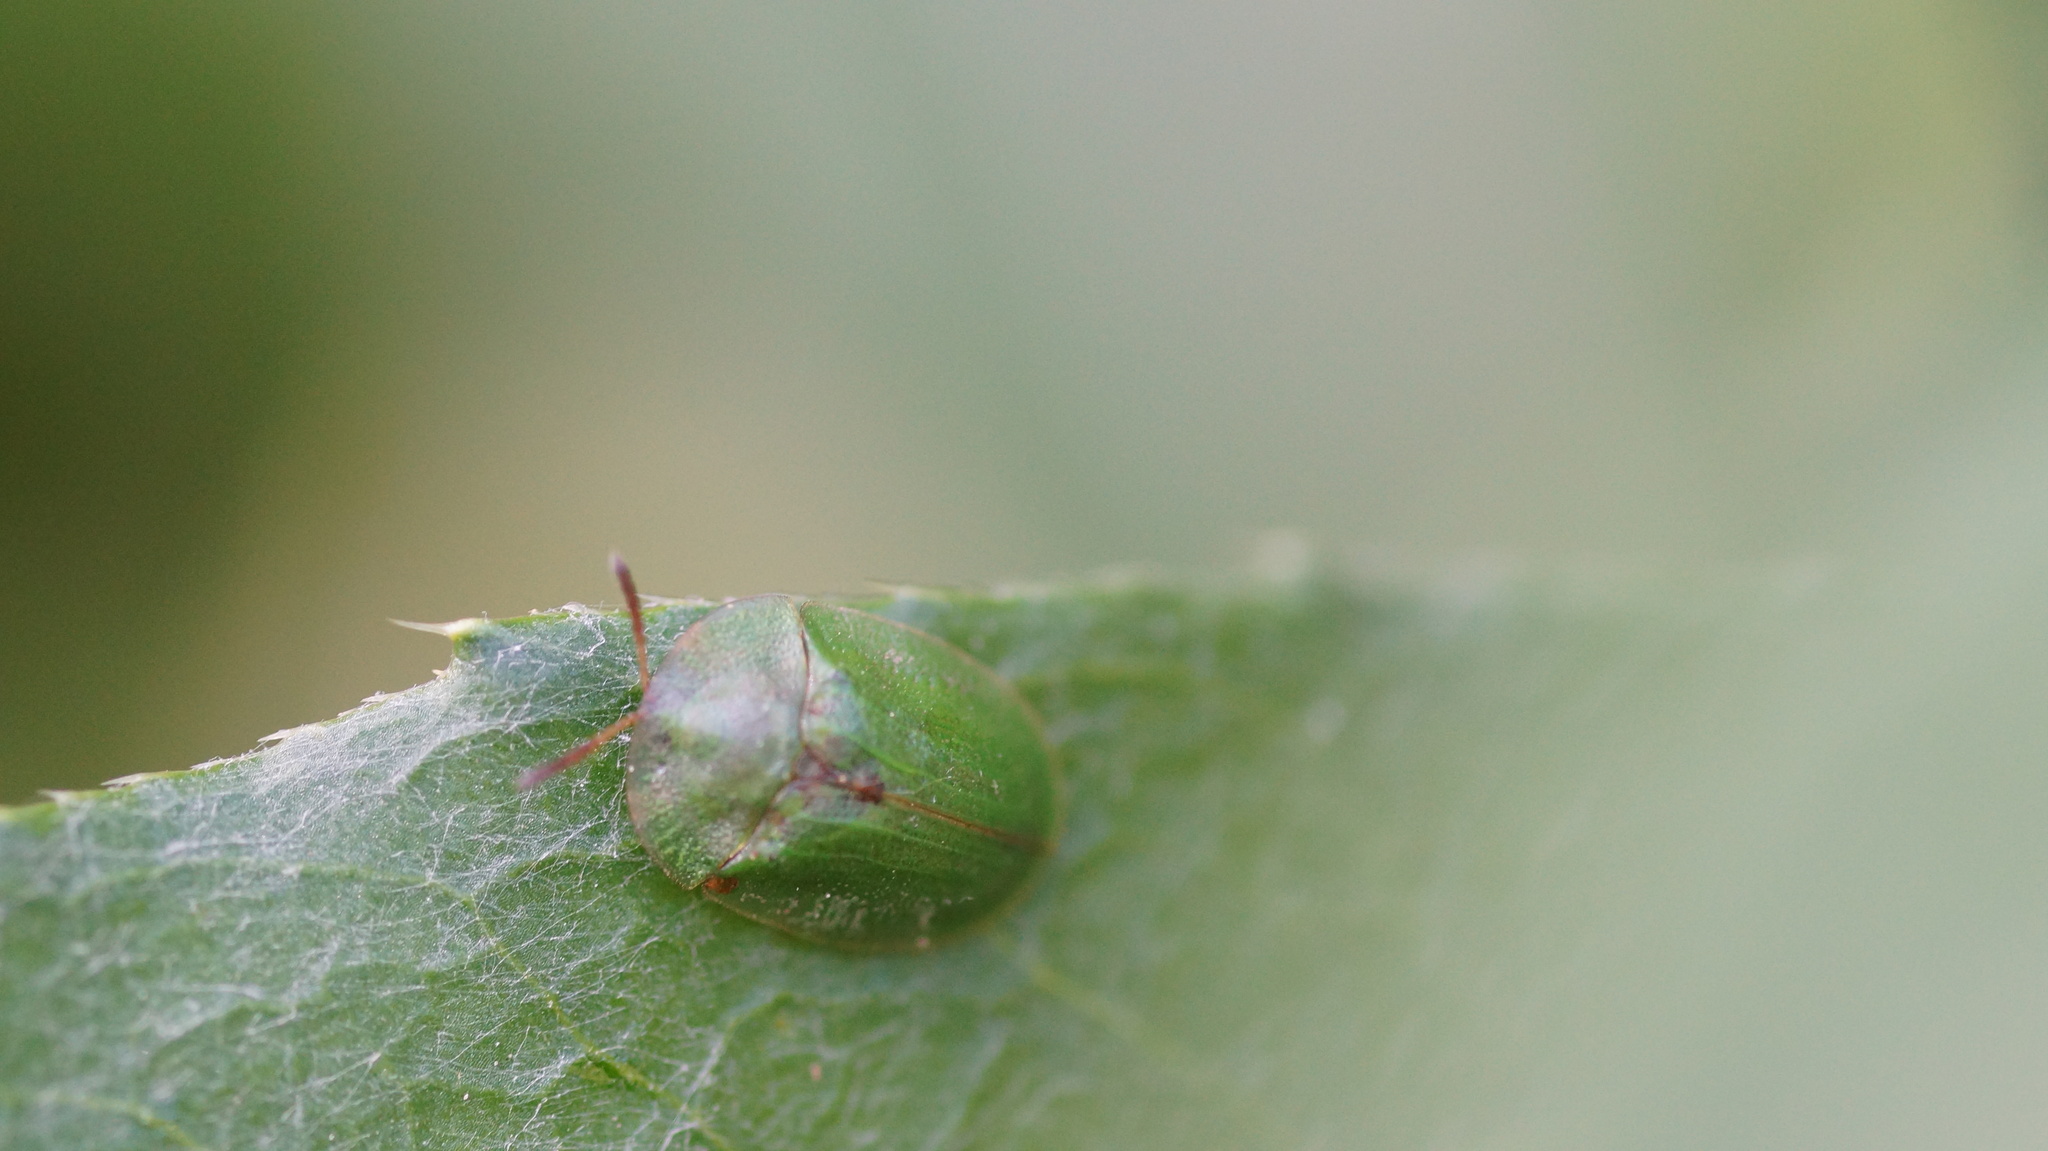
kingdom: Animalia
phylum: Arthropoda
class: Insecta
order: Coleoptera
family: Chrysomelidae
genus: Cassida
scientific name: Cassida rubiginosa
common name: Thistle tortoise beetle
